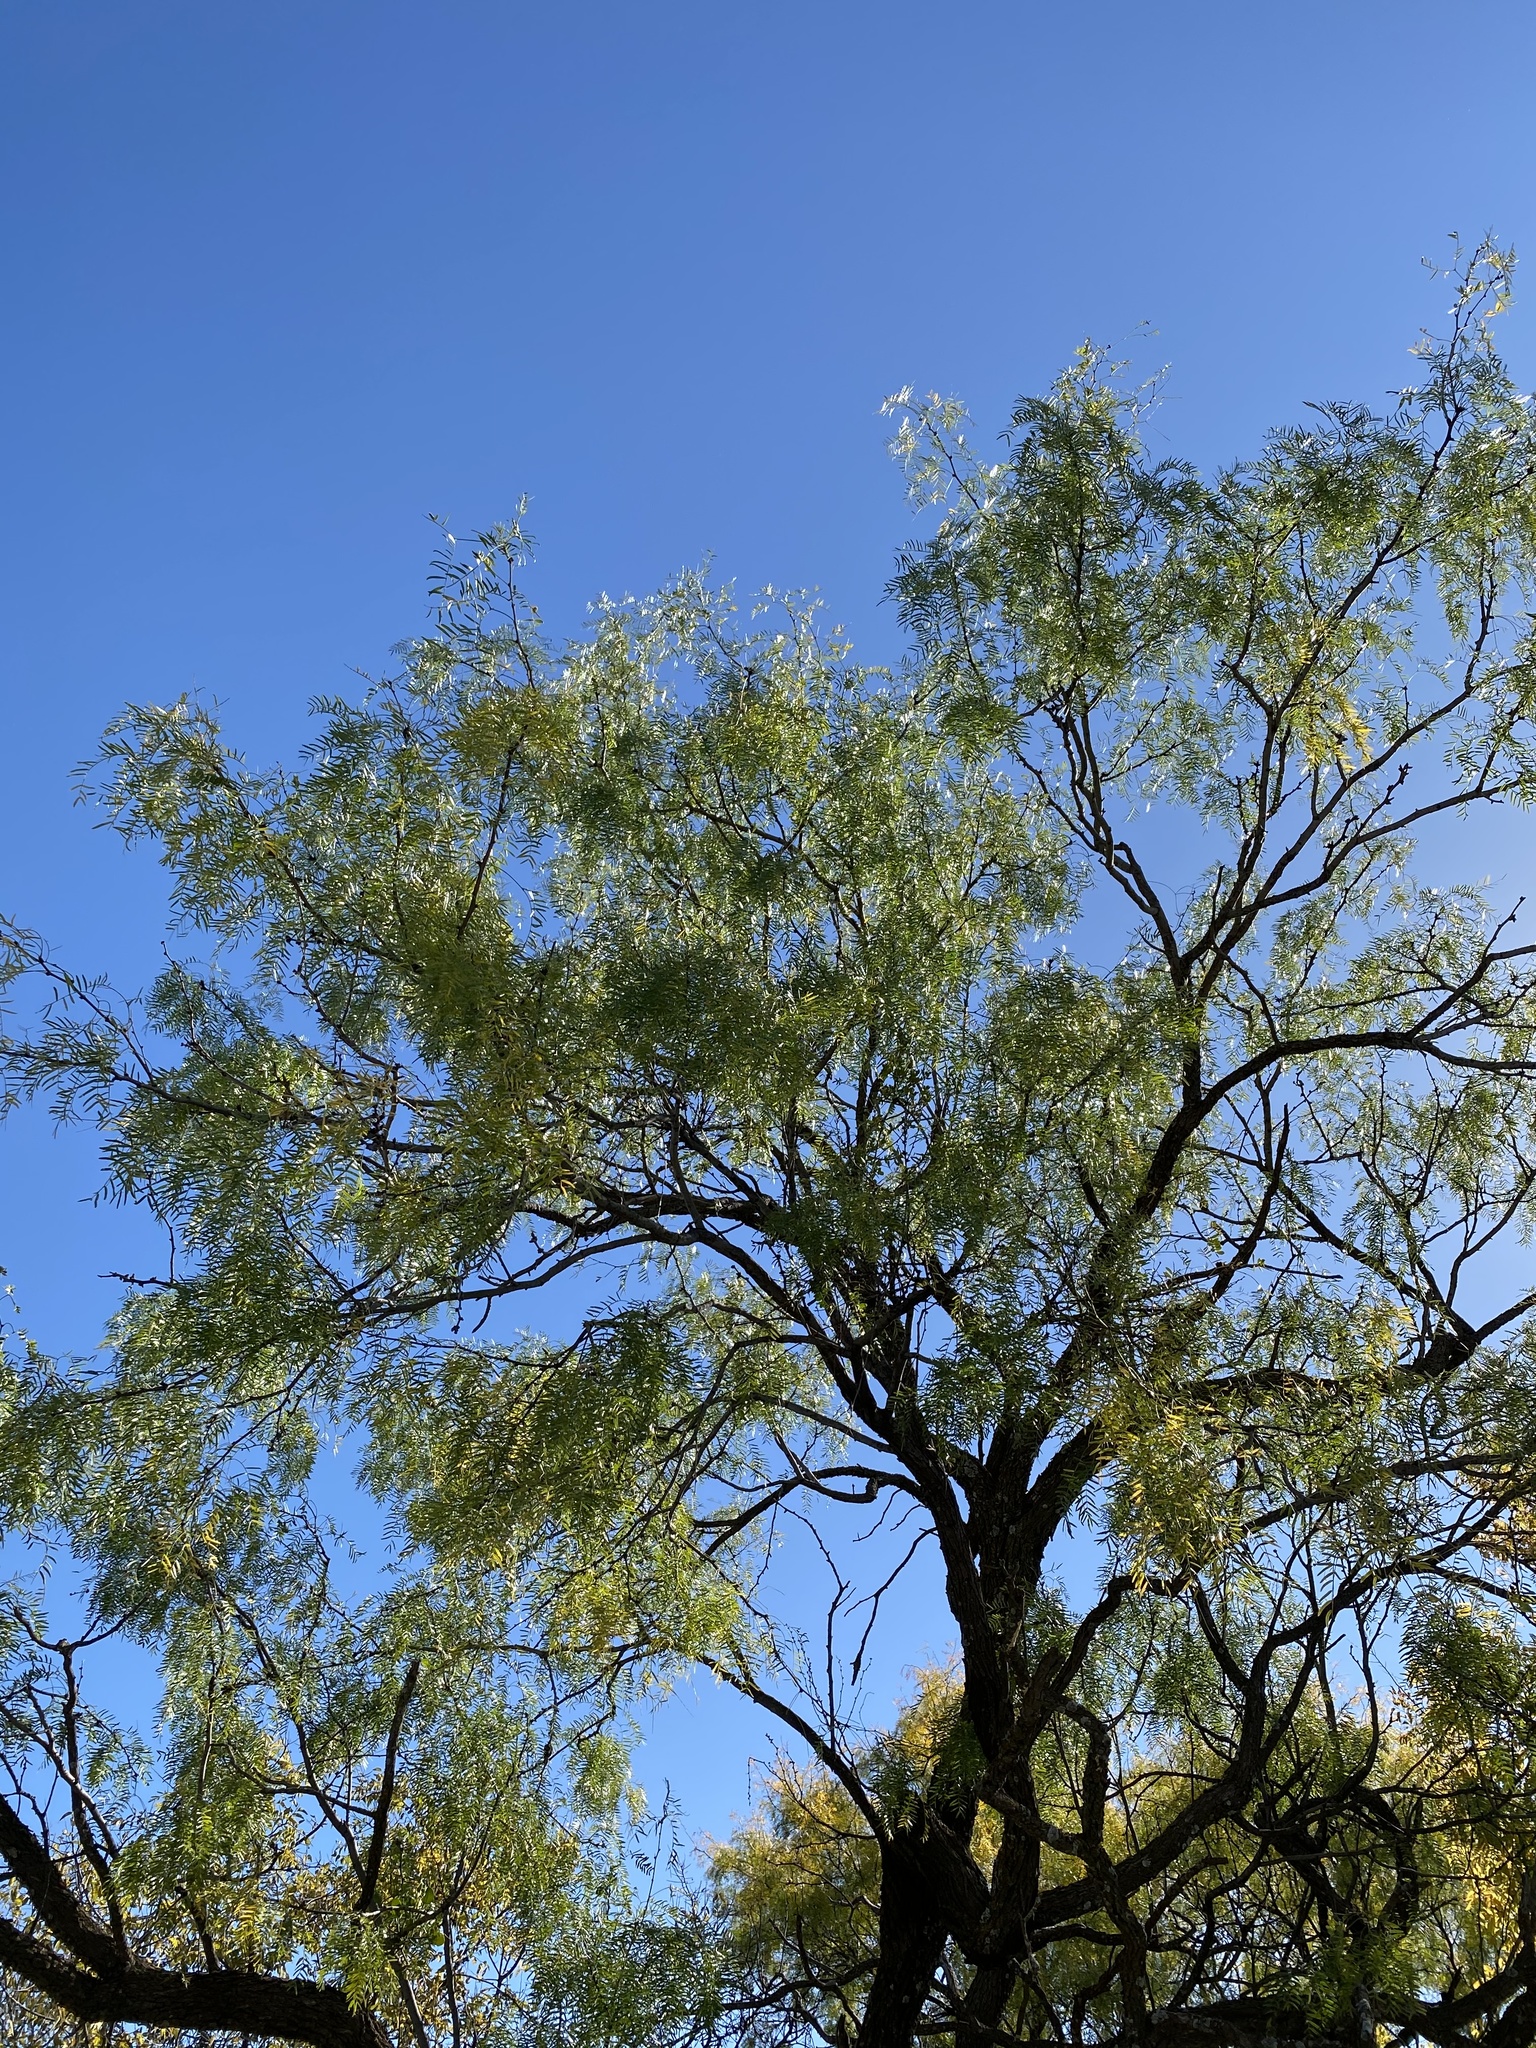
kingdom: Plantae
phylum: Tracheophyta
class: Magnoliopsida
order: Rosales
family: Cannabaceae
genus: Celtis
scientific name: Celtis laevigata
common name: Sugarberry
